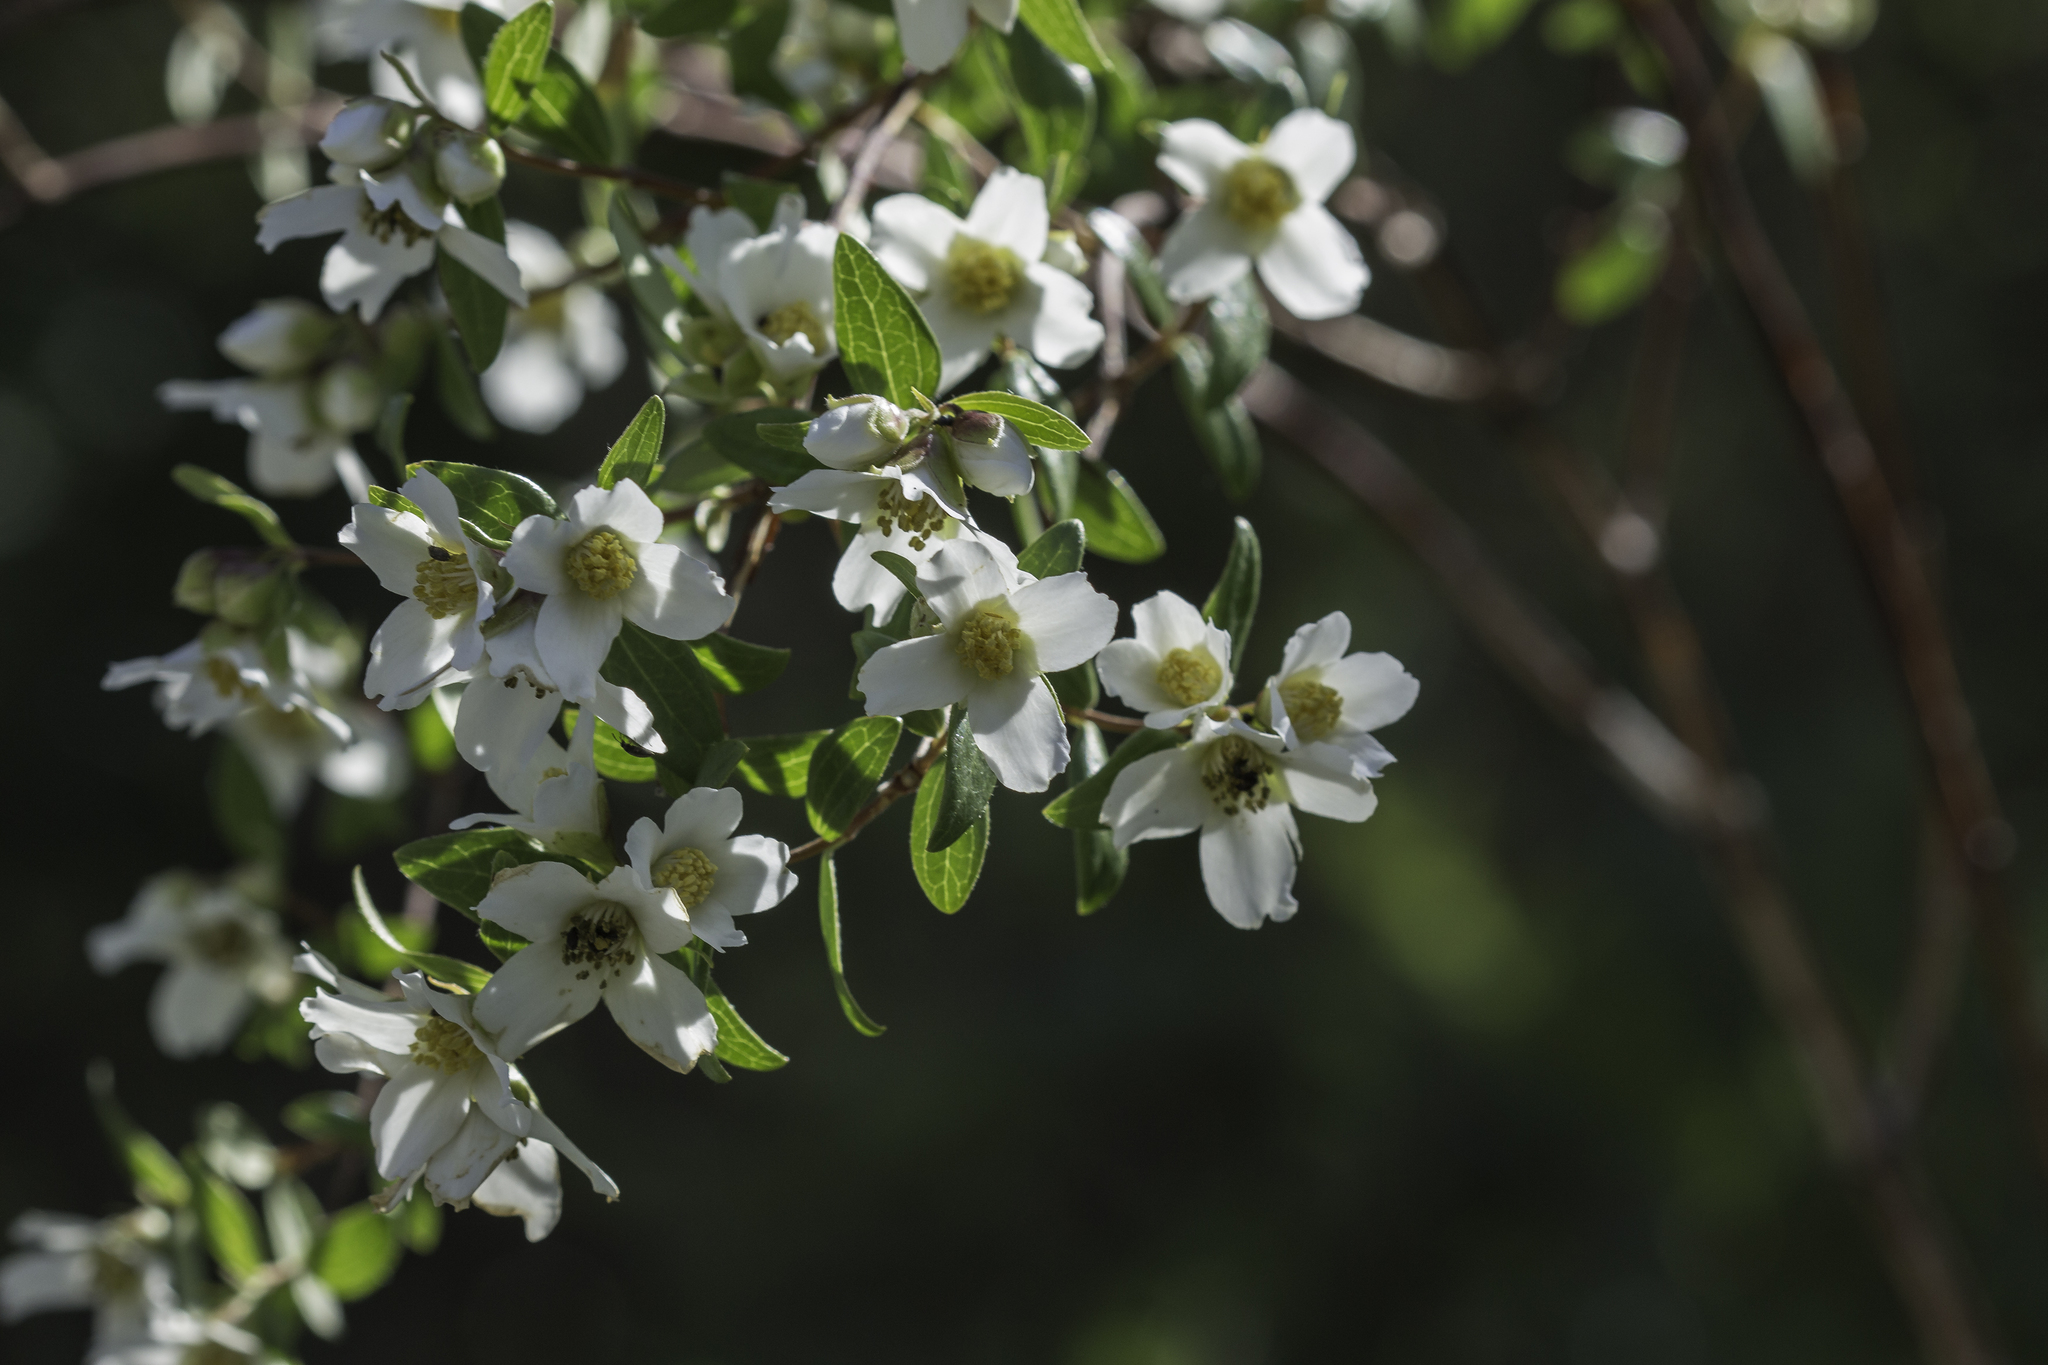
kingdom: Plantae
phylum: Tracheophyta
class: Magnoliopsida
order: Cornales
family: Hydrangeaceae
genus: Philadelphus
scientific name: Philadelphus microphyllus
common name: Desert mock orange
